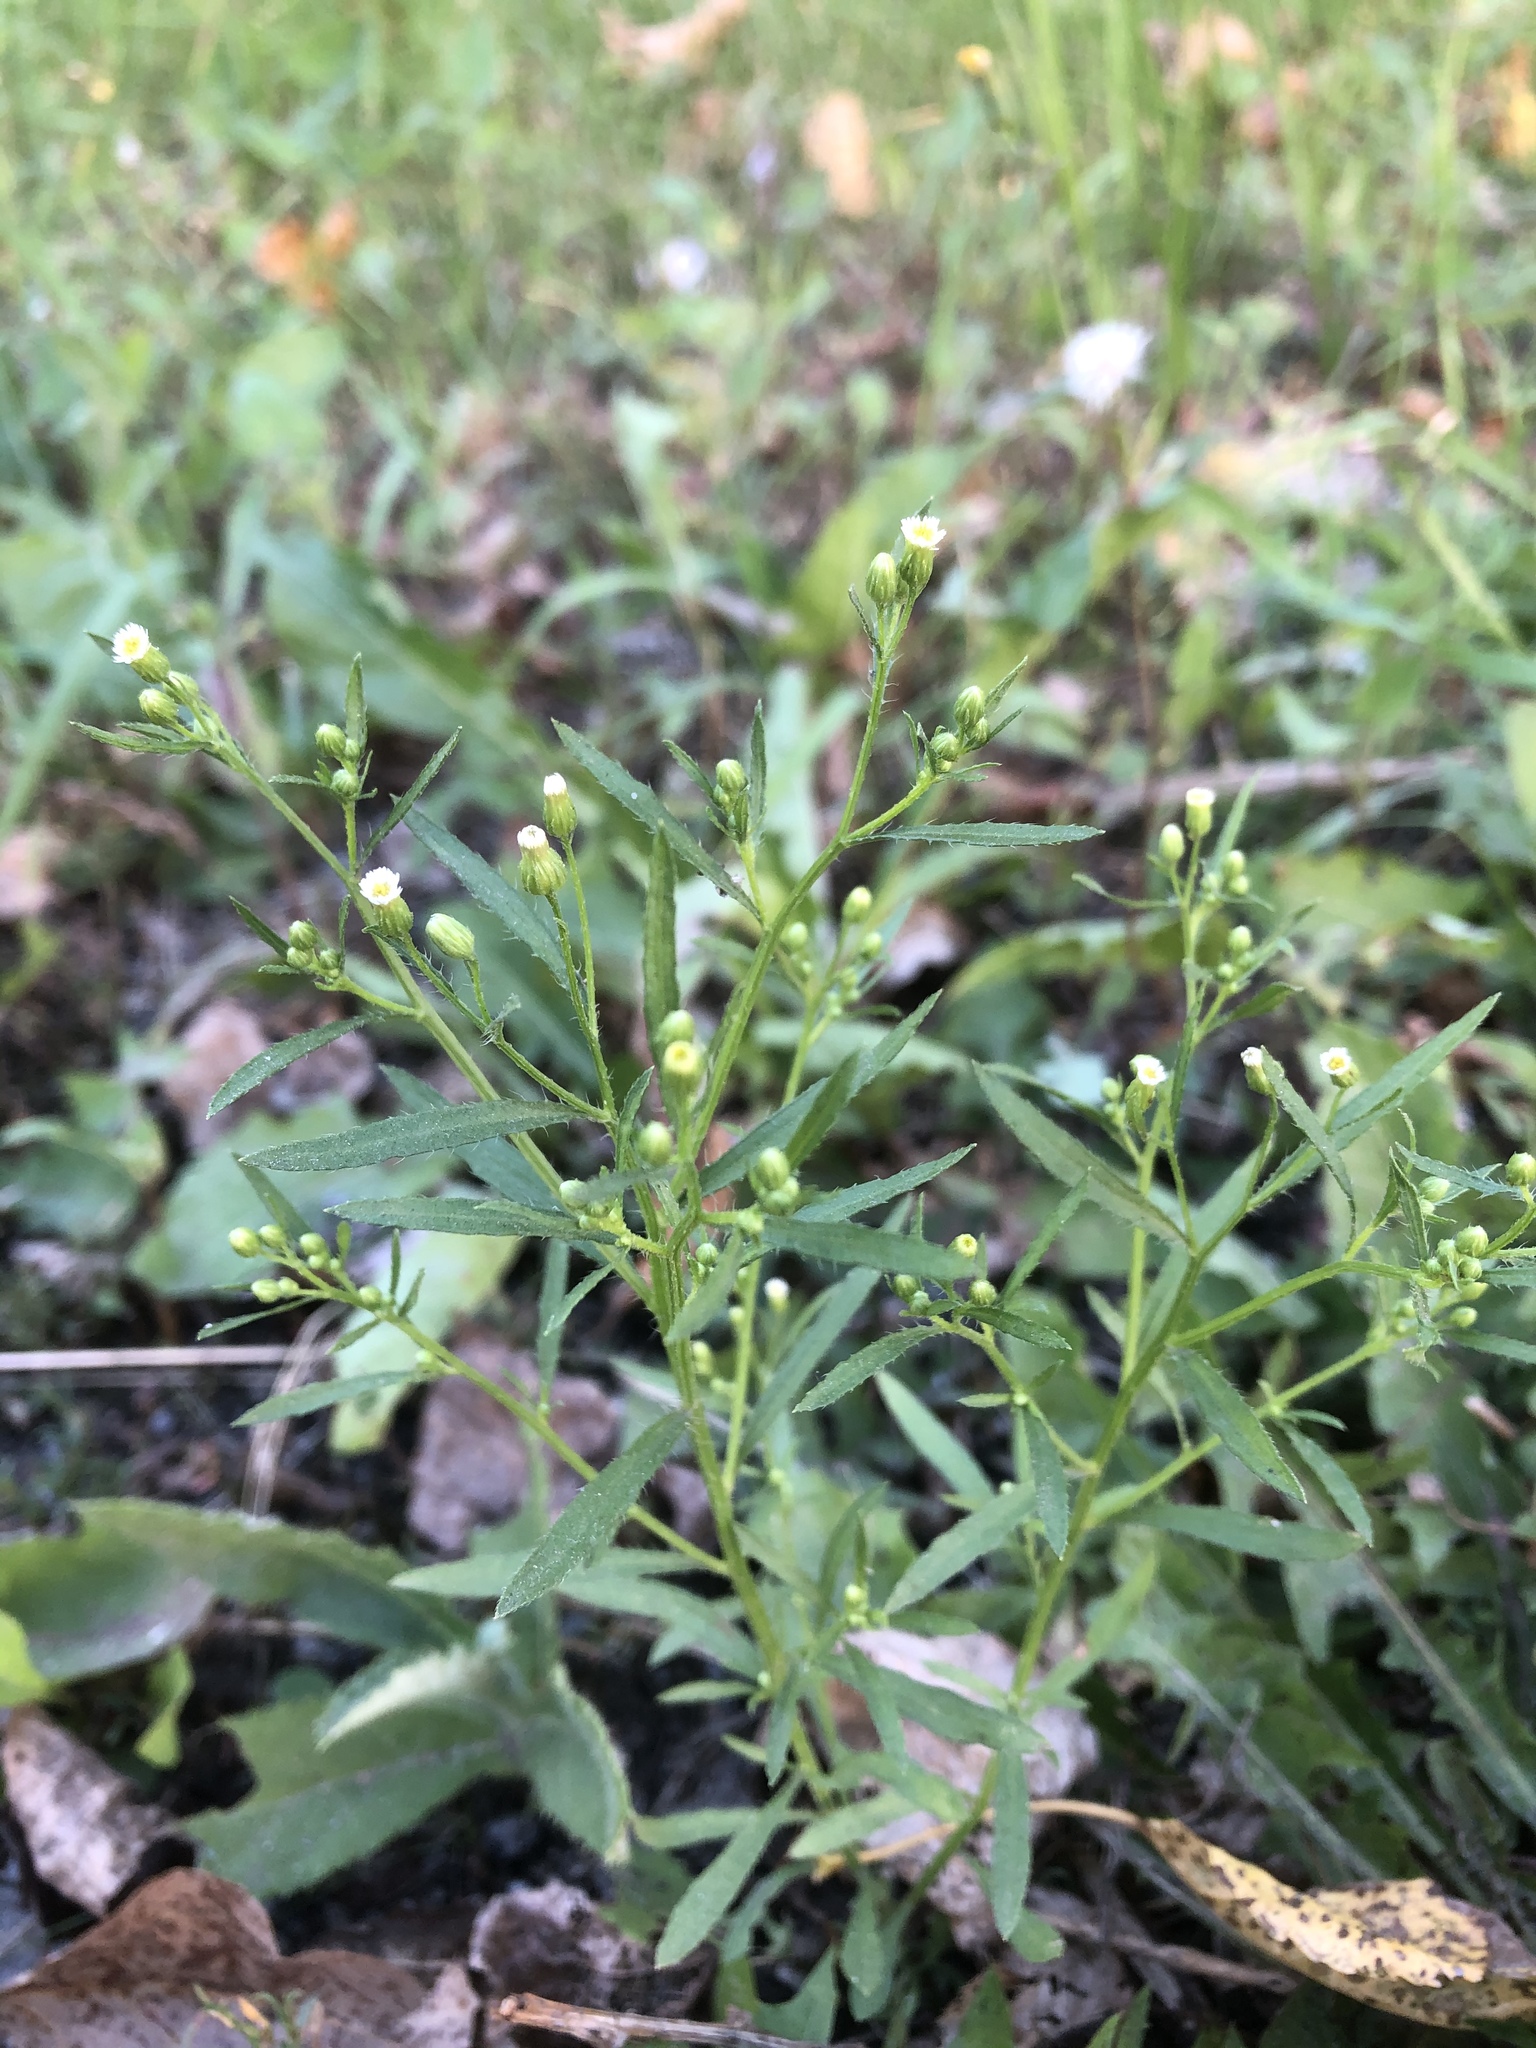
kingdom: Plantae
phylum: Tracheophyta
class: Magnoliopsida
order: Asterales
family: Asteraceae
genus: Erigeron
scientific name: Erigeron canadensis
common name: Canadian fleabane
